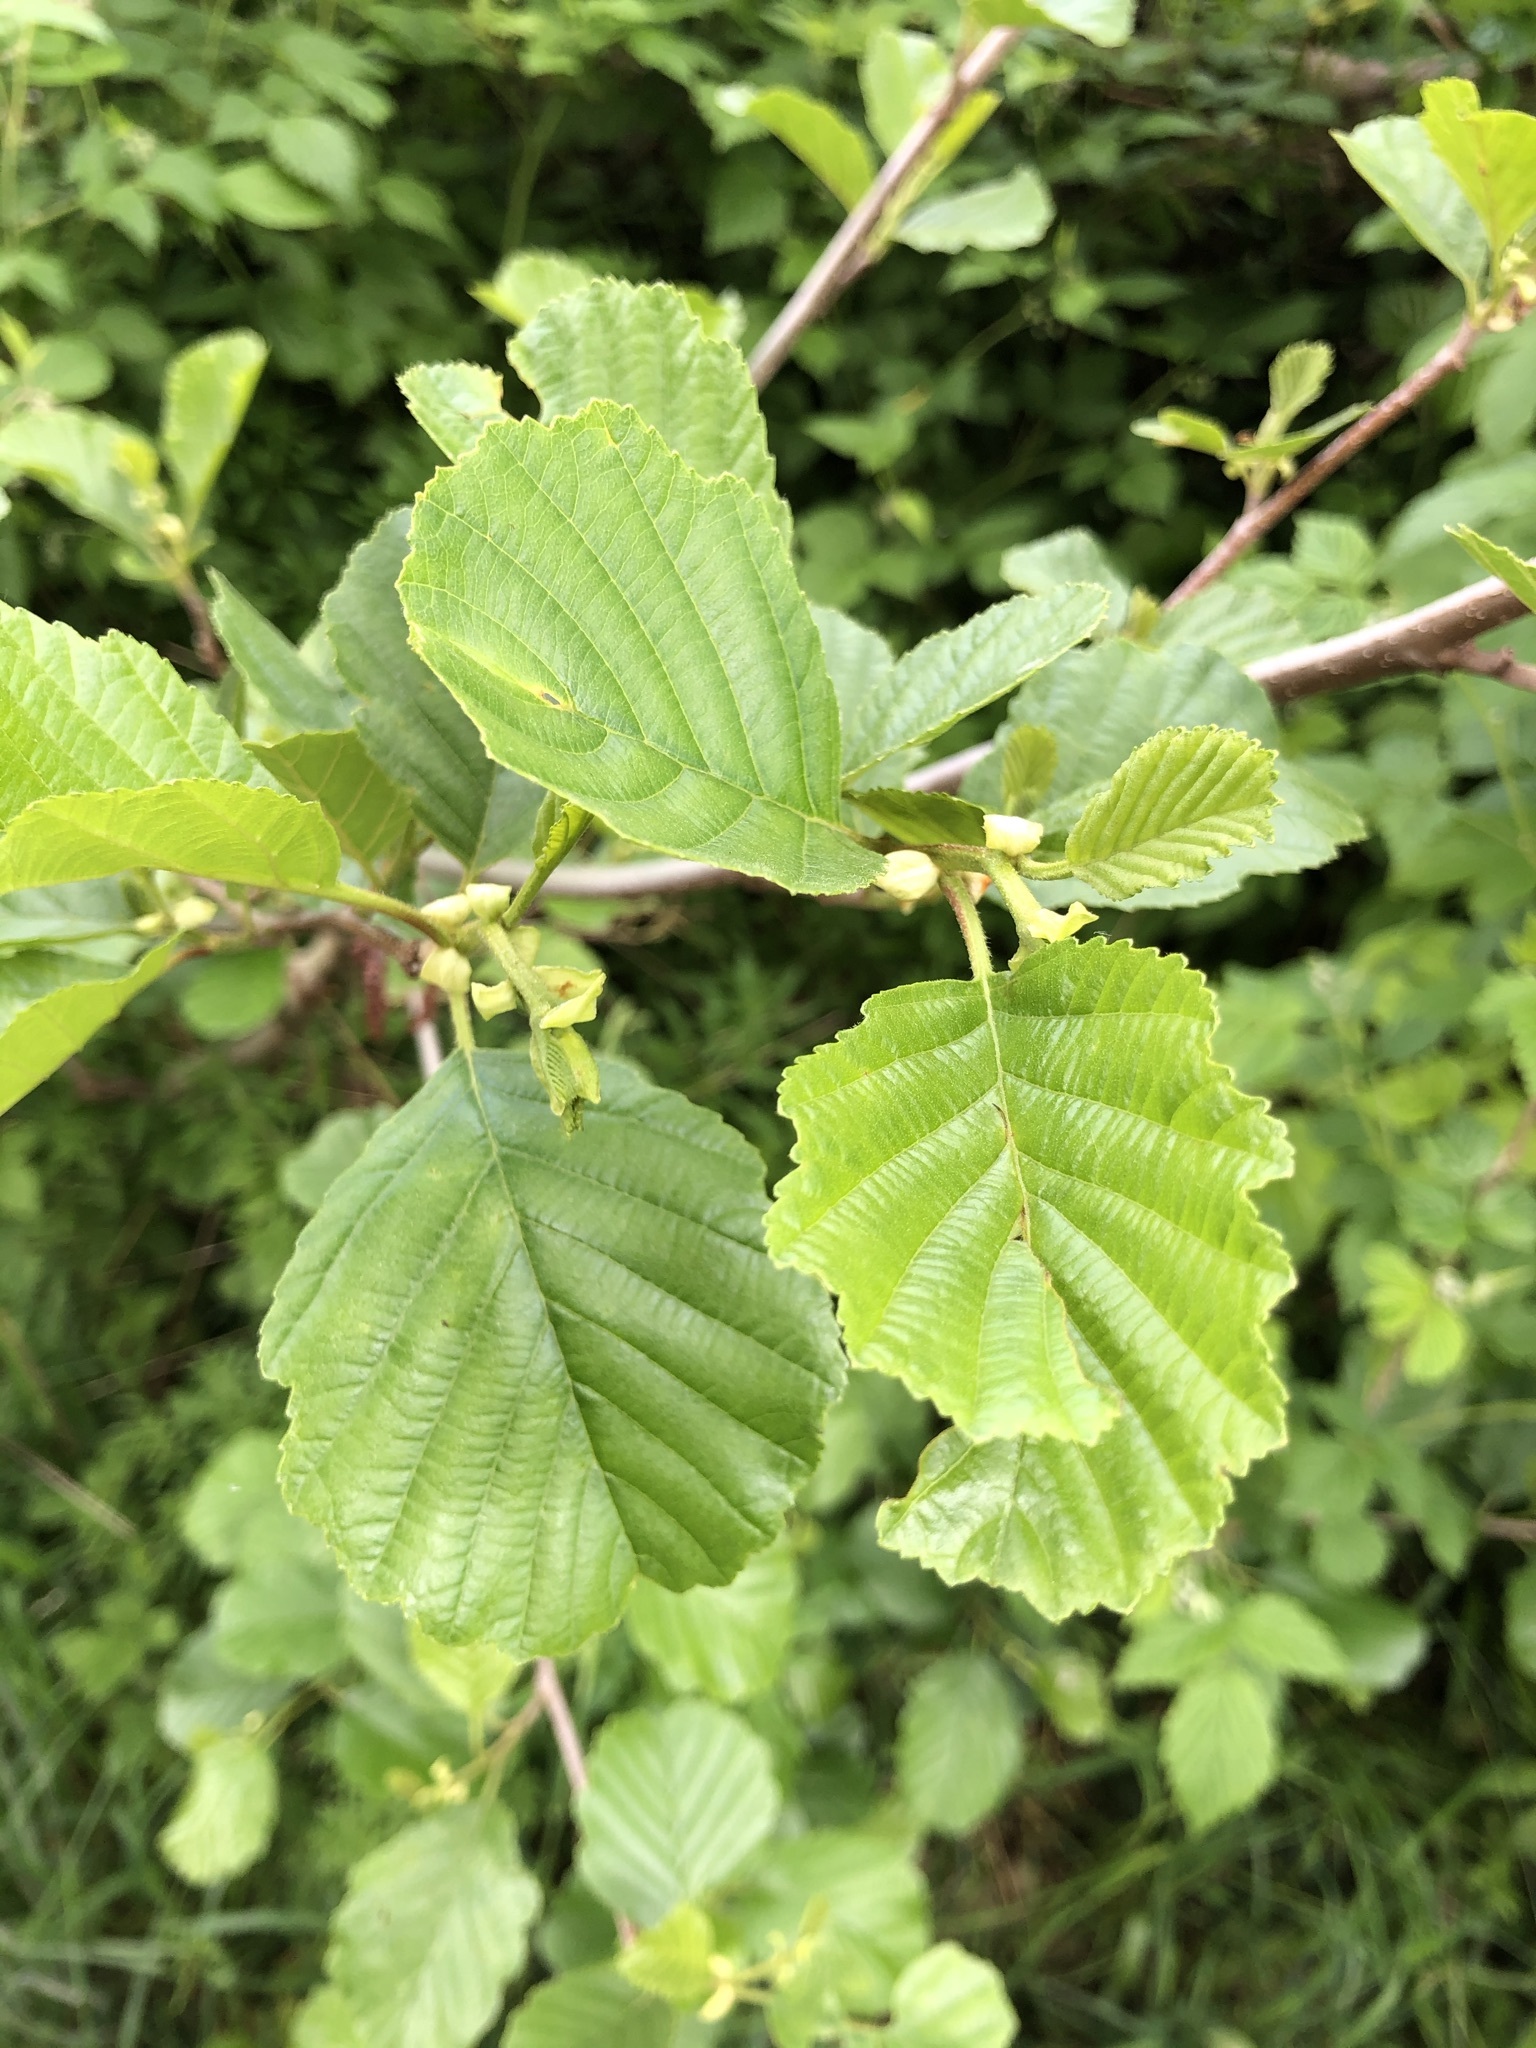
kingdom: Plantae
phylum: Tracheophyta
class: Magnoliopsida
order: Fagales
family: Betulaceae
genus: Alnus
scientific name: Alnus glutinosa
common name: Black alder
